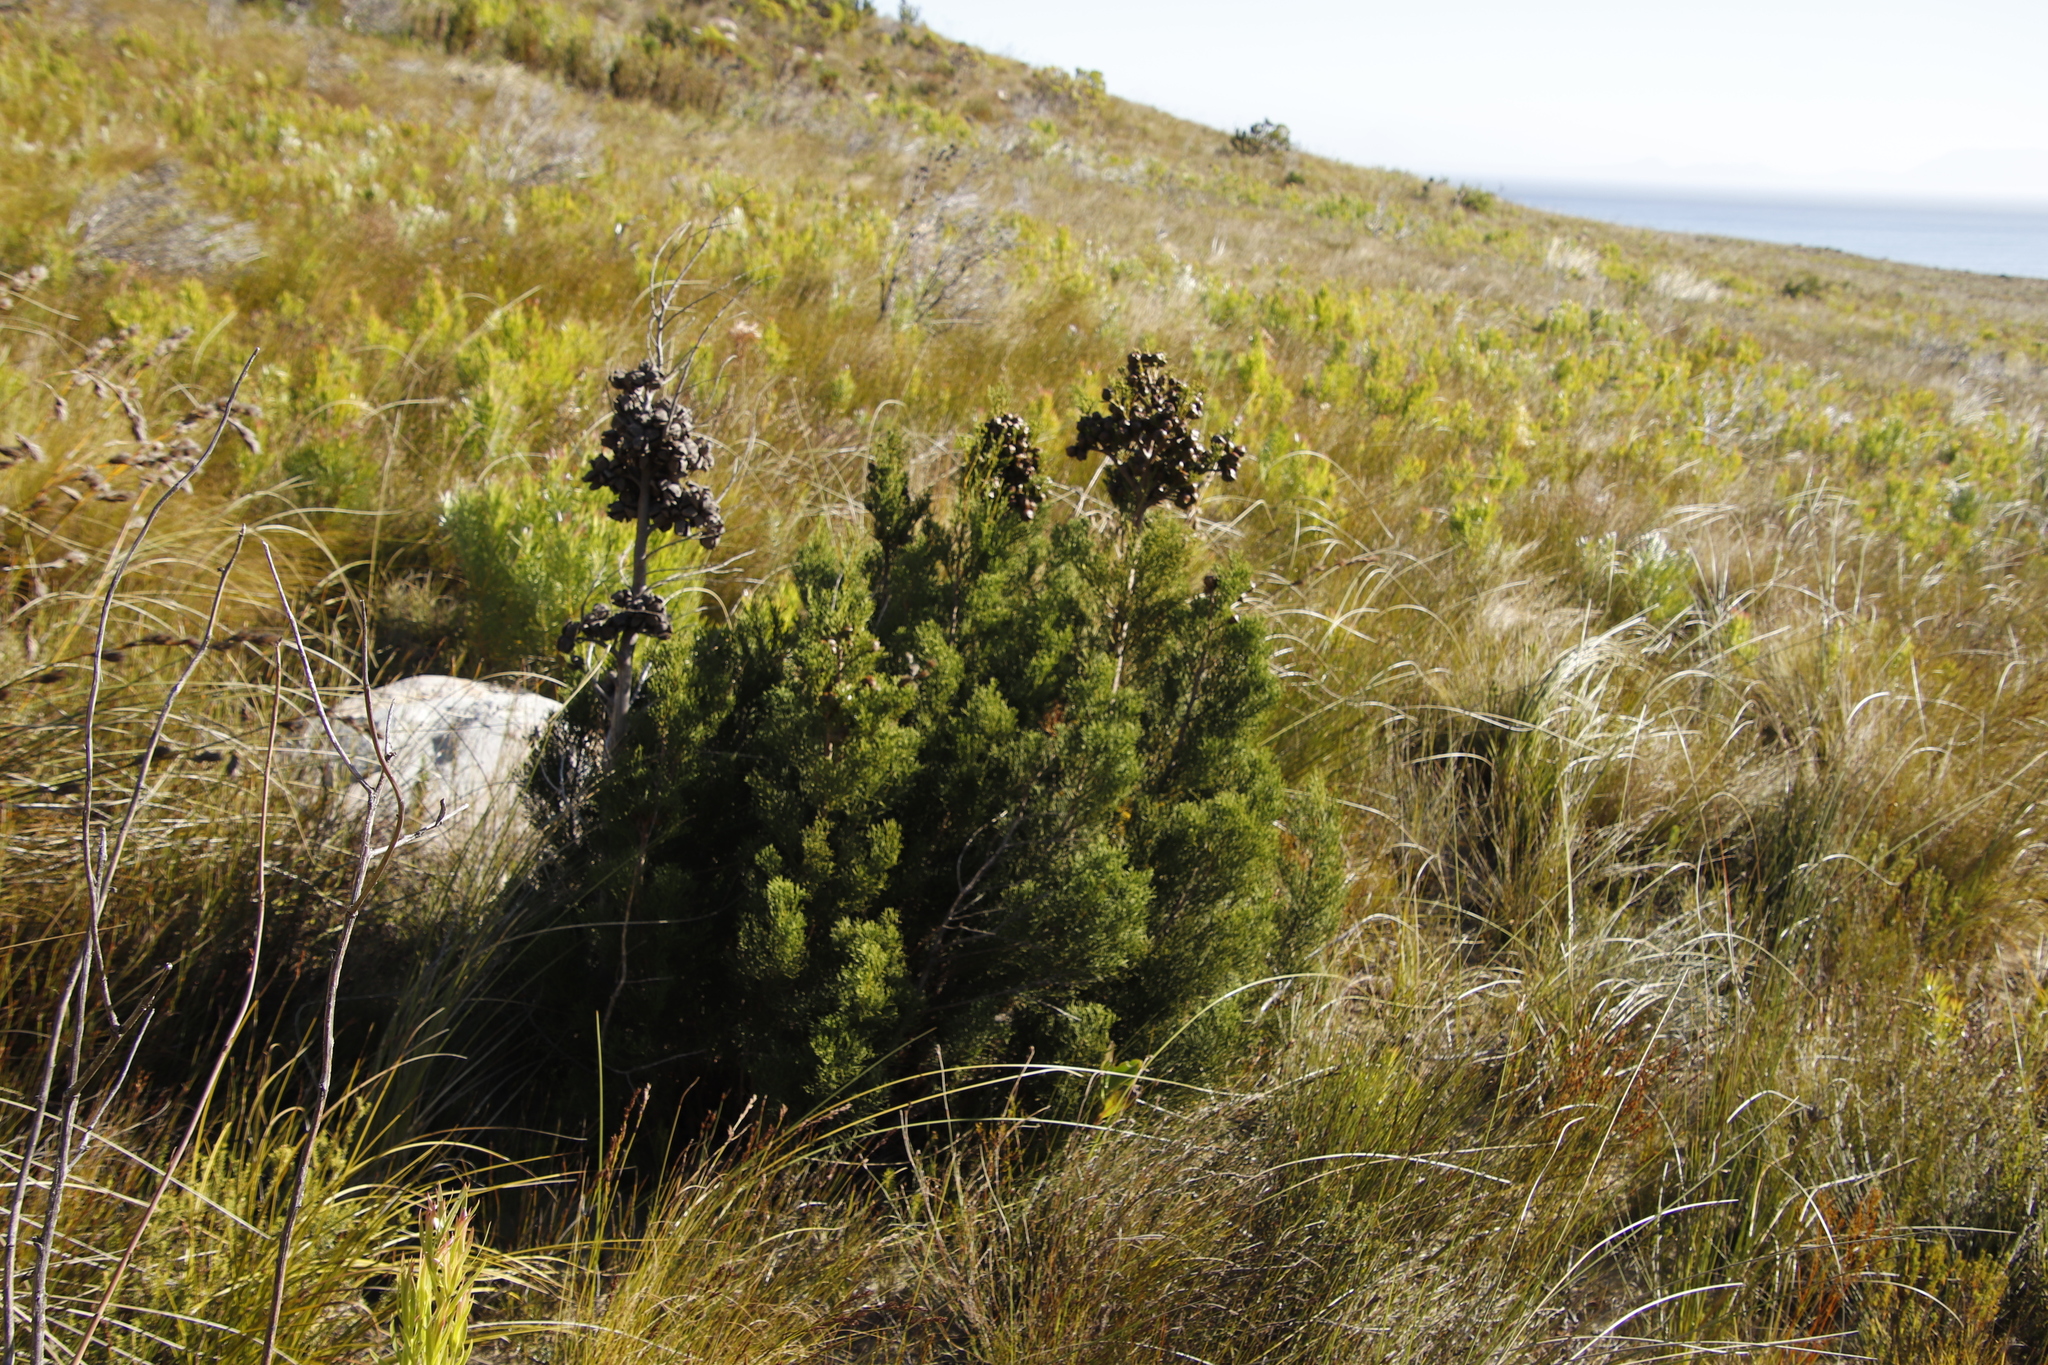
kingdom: Plantae
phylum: Tracheophyta
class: Pinopsida
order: Pinales
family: Cupressaceae
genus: Widdringtonia
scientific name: Widdringtonia nodiflora
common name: Cape cypress
